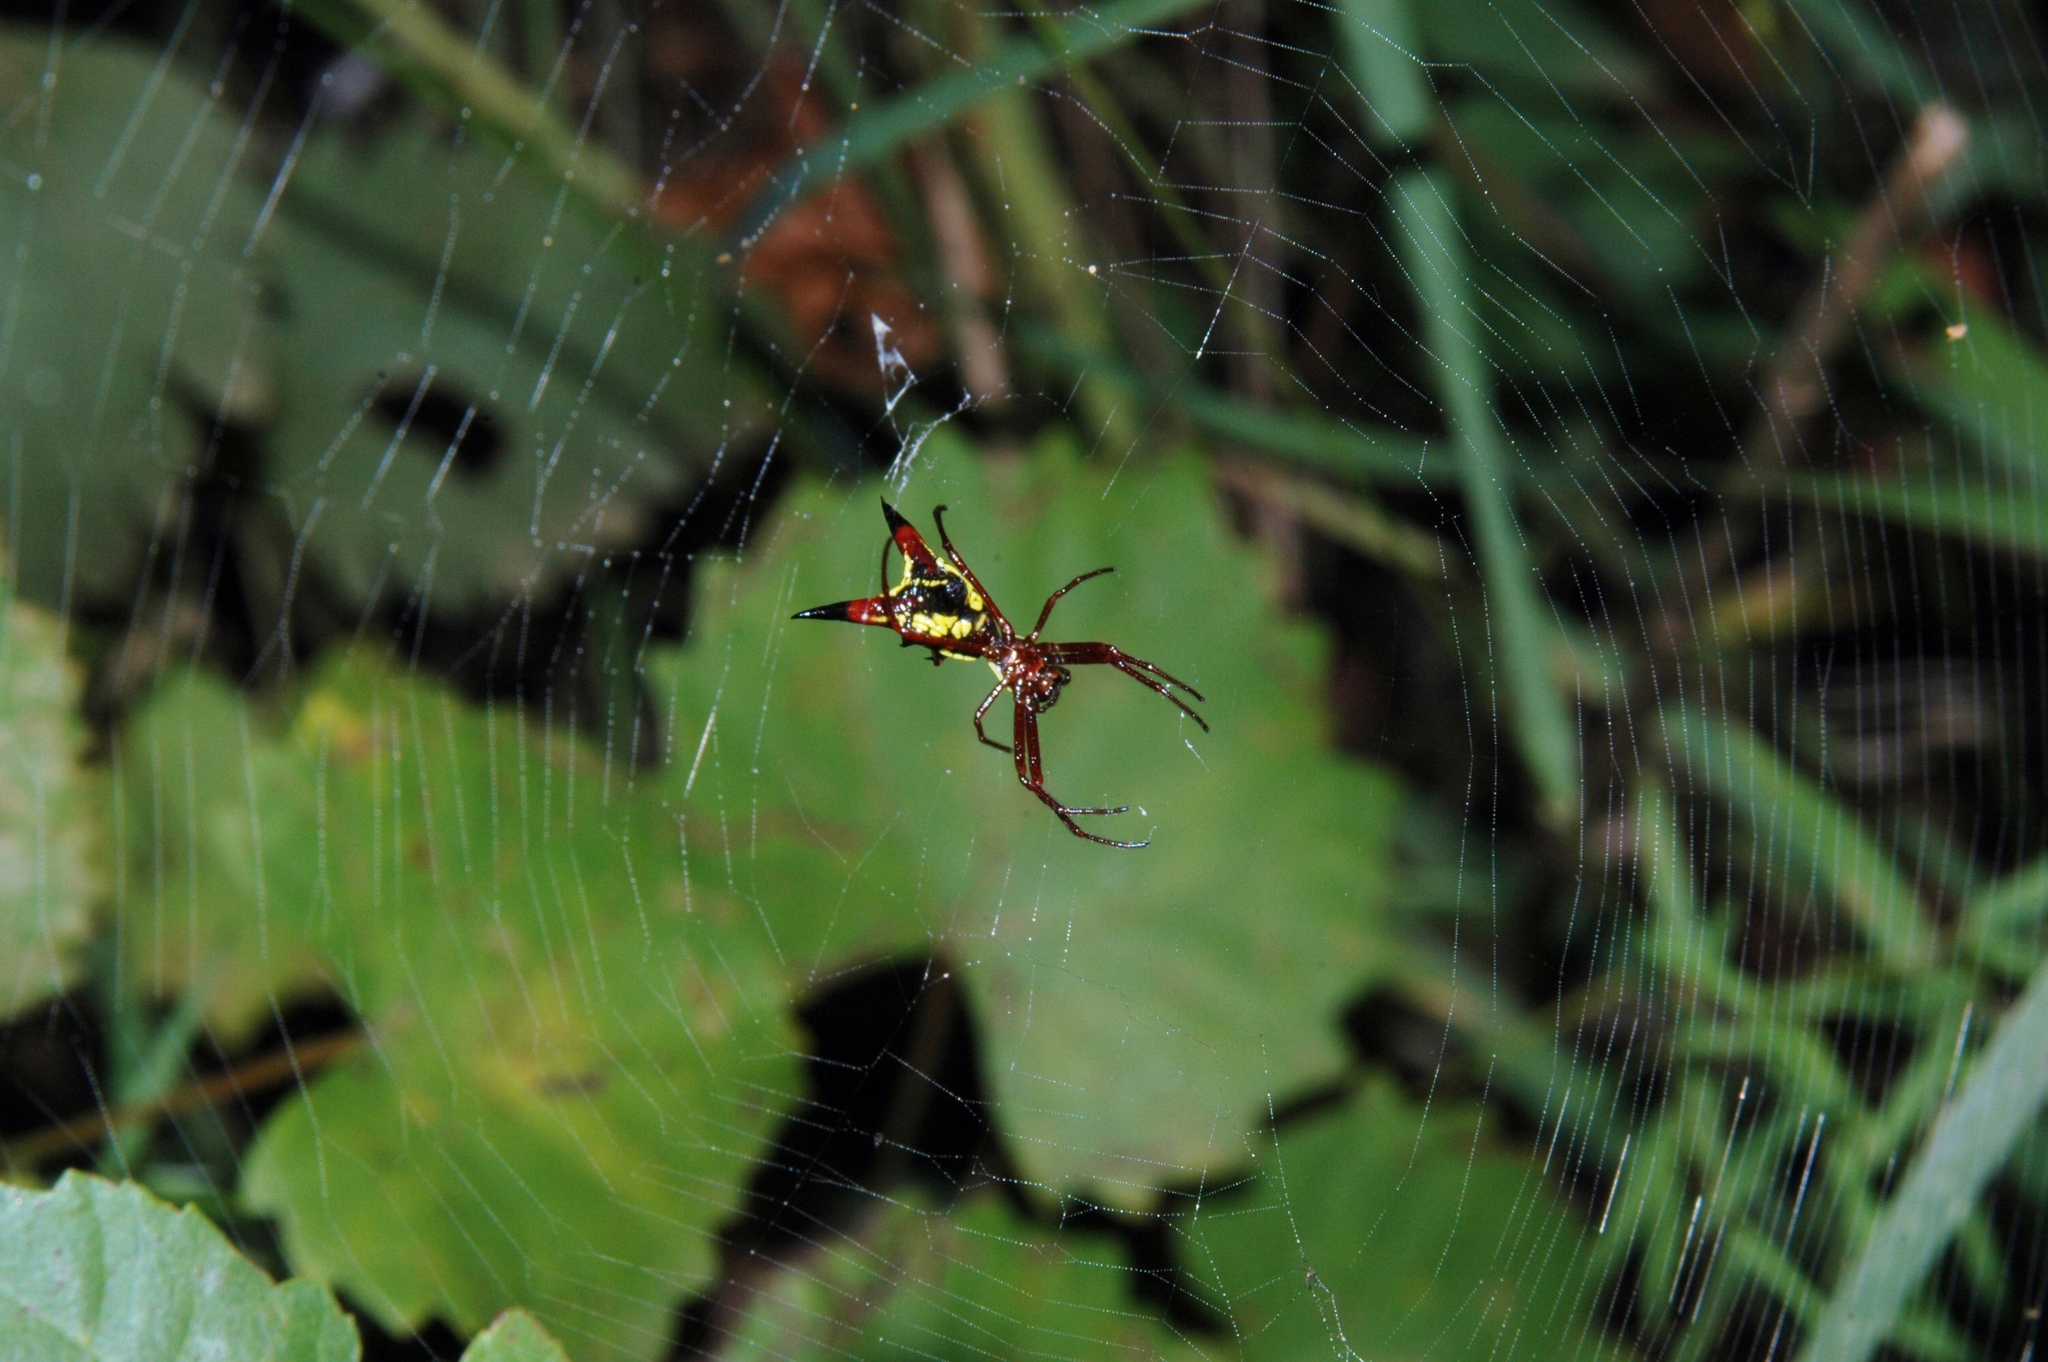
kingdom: Animalia
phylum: Arthropoda
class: Arachnida
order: Araneae
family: Araneidae
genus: Micrathena
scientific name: Micrathena sagittata
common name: Orb weavers
